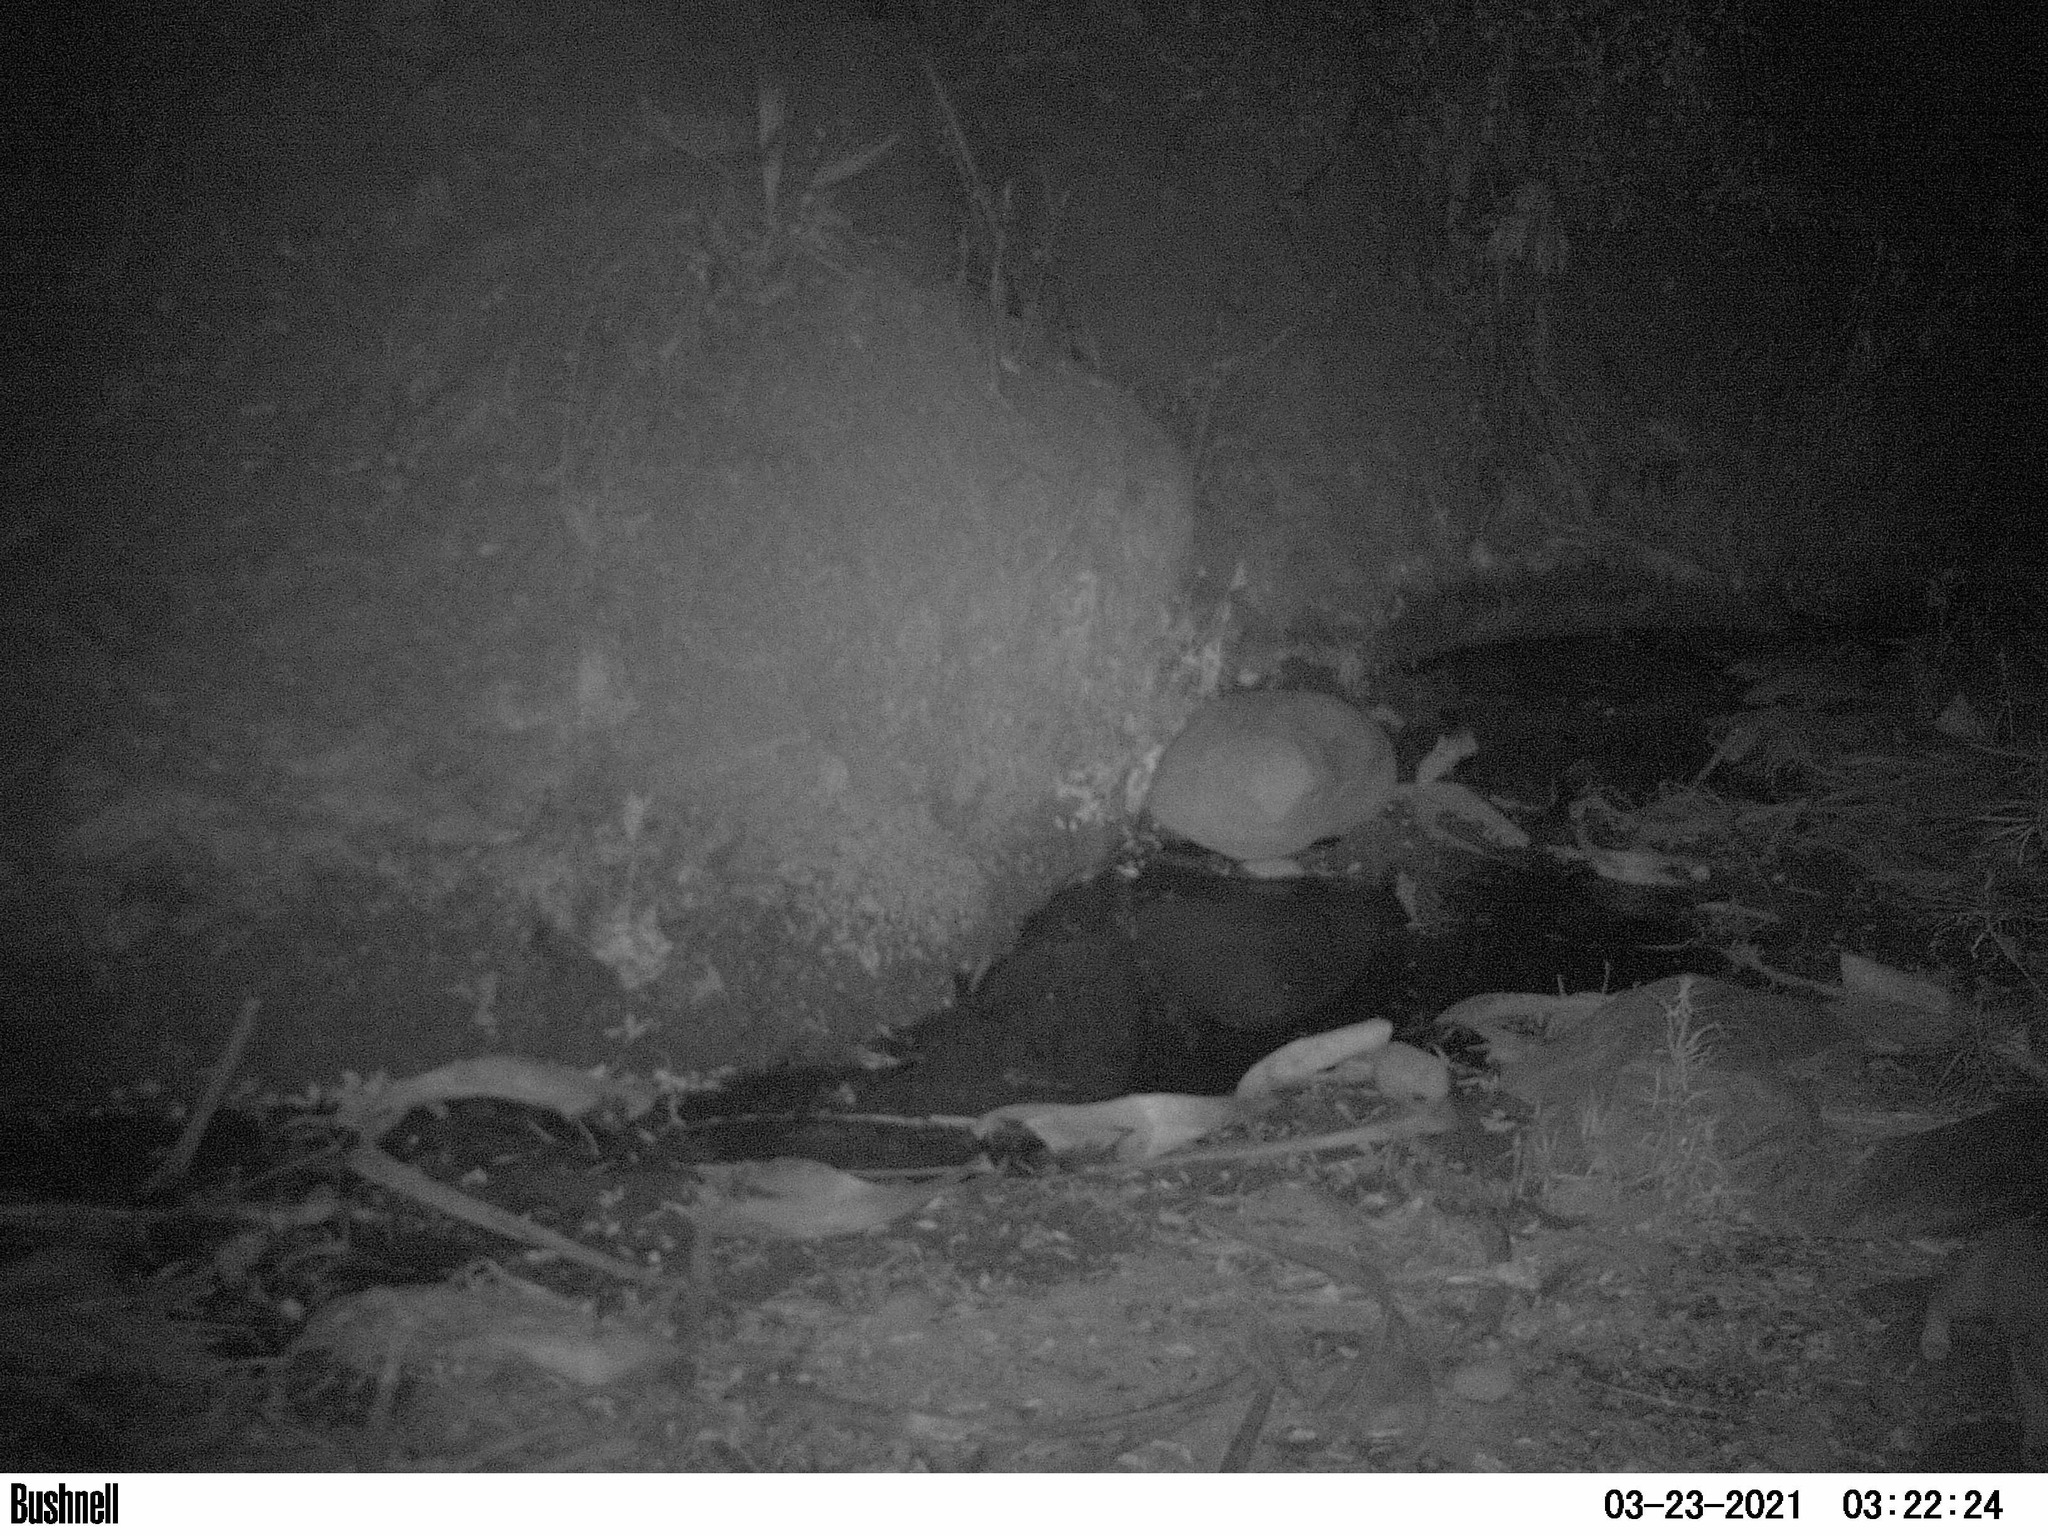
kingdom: Animalia
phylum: Chordata
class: Mammalia
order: Carnivora
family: Felidae
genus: Lynx
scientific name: Lynx rufus
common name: Bobcat
